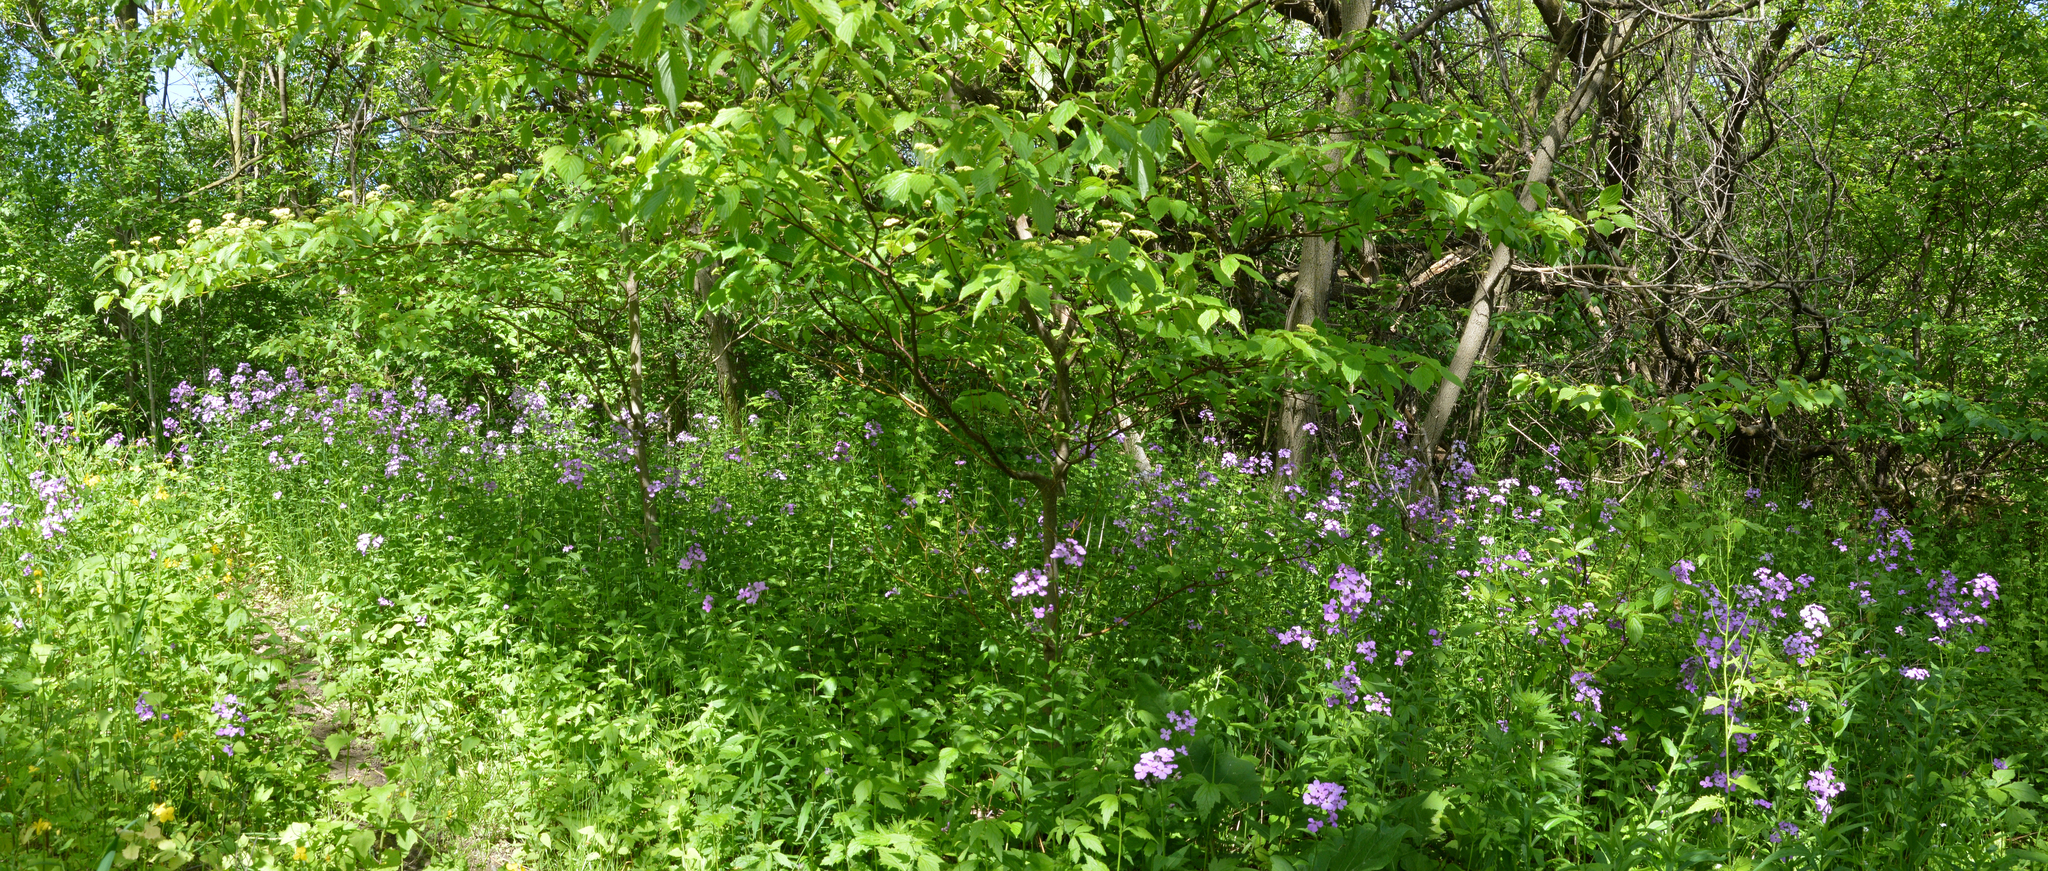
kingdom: Plantae
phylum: Tracheophyta
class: Magnoliopsida
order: Brassicales
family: Brassicaceae
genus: Hesperis
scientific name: Hesperis matronalis
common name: Dame's-violet
